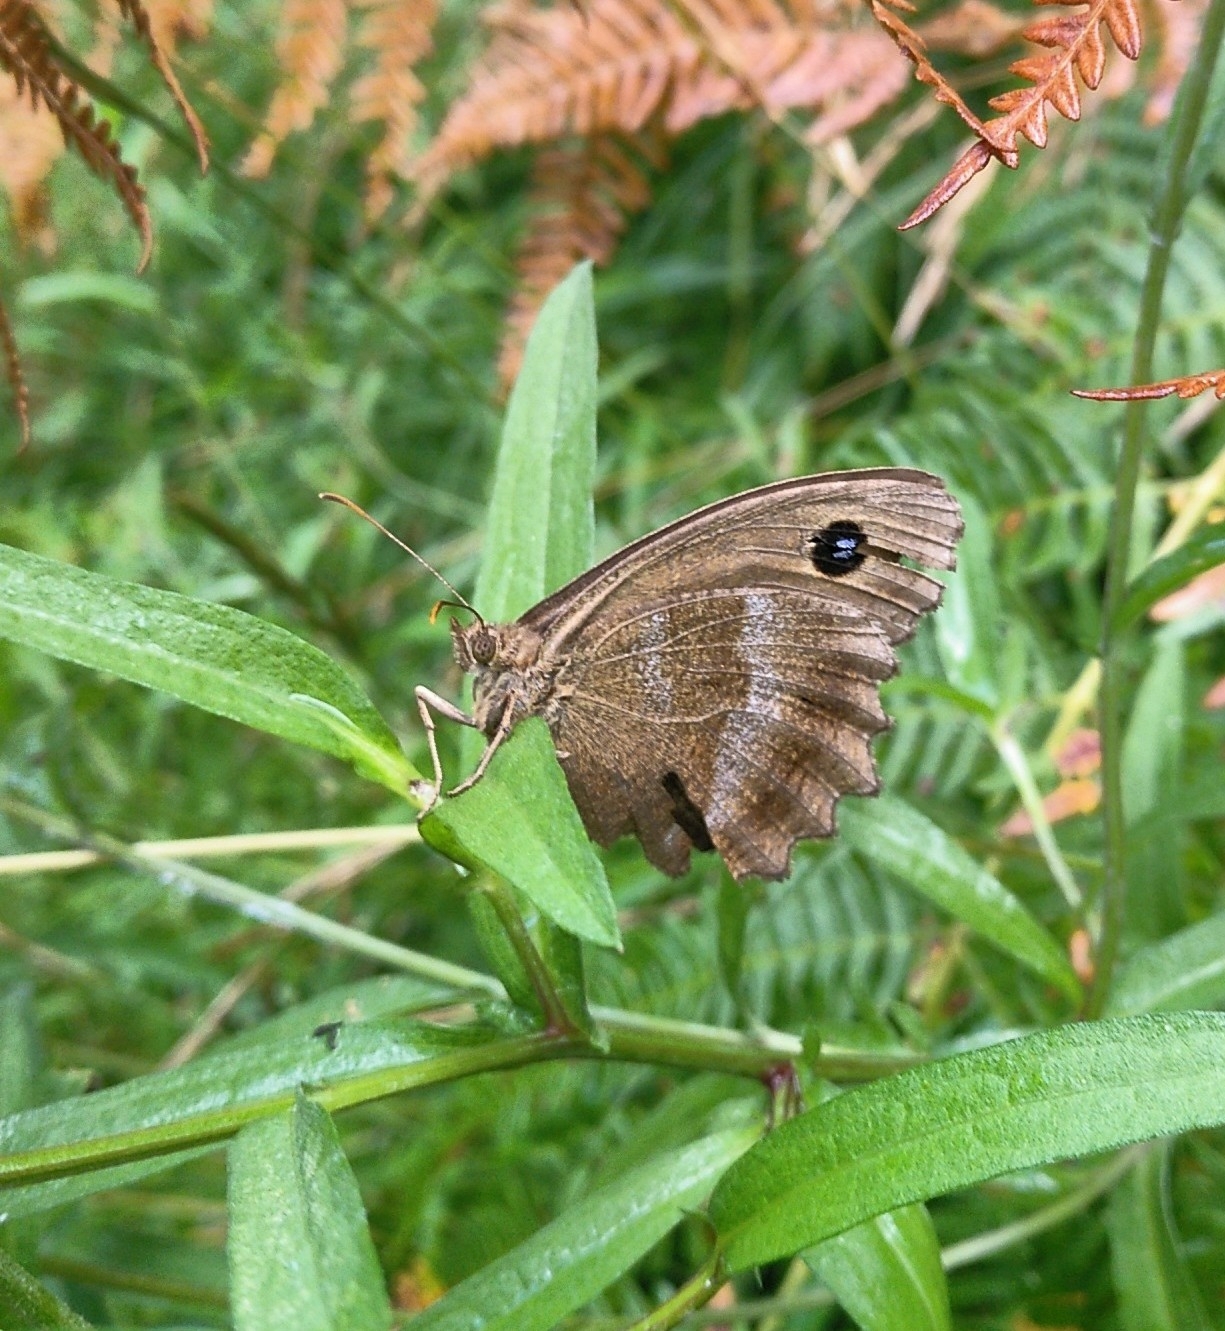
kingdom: Animalia
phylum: Arthropoda
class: Insecta
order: Lepidoptera
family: Nymphalidae
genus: Minois
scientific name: Minois dryas
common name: Dryad
